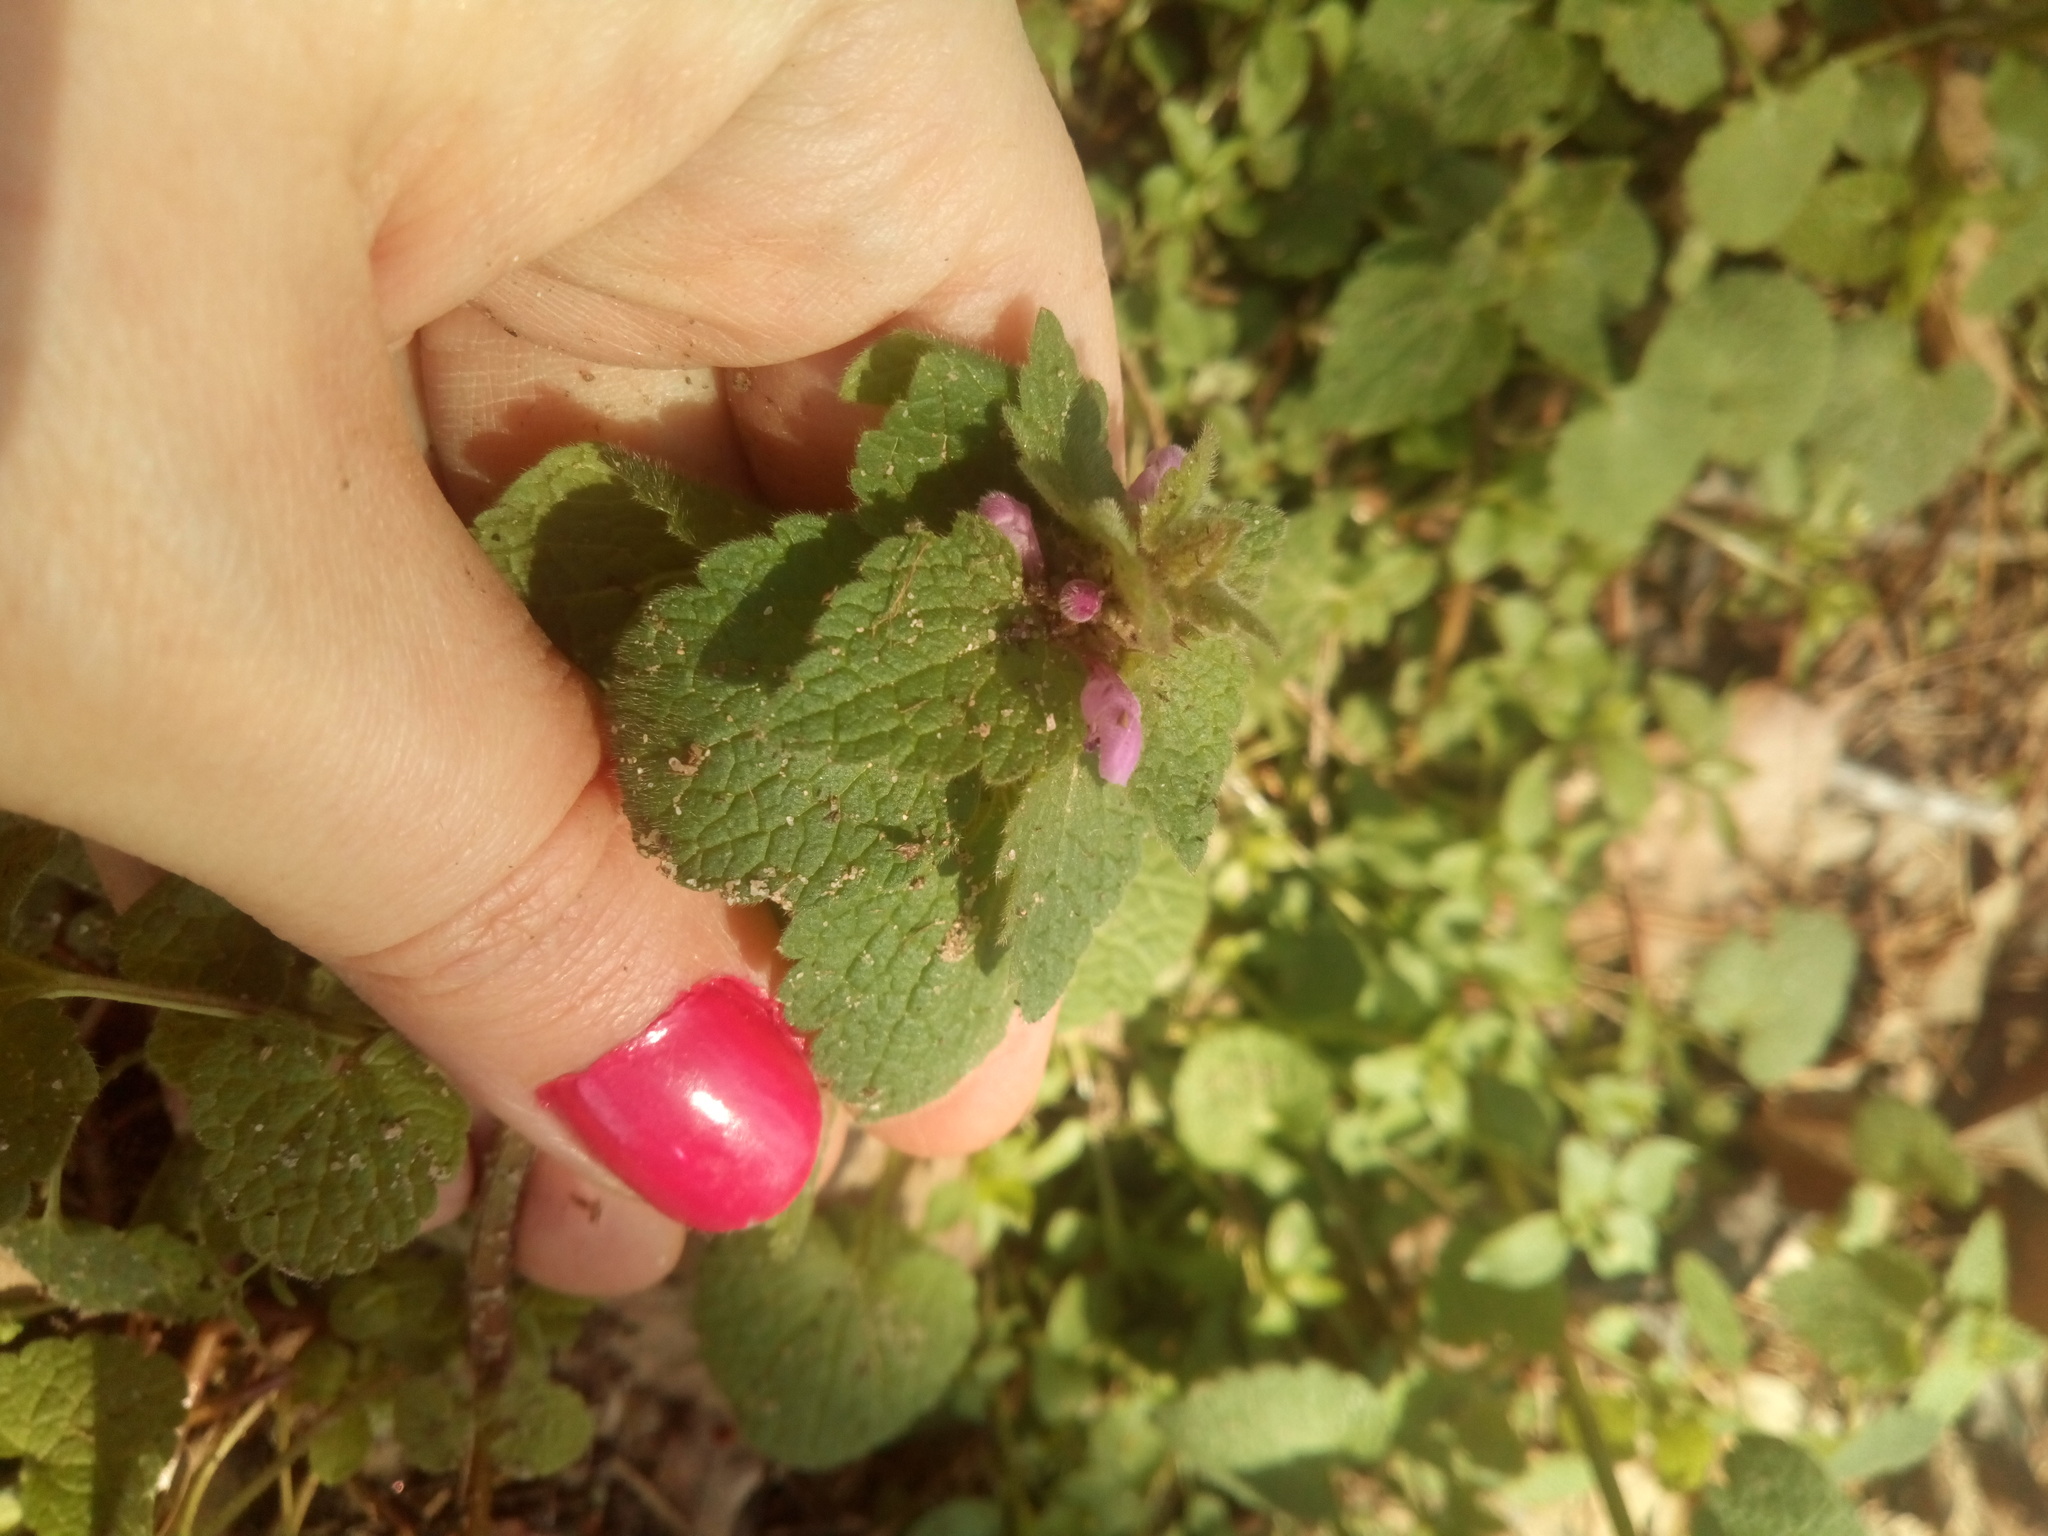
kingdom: Plantae
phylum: Tracheophyta
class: Magnoliopsida
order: Lamiales
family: Lamiaceae
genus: Lamium
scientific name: Lamium purpureum
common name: Red dead-nettle
